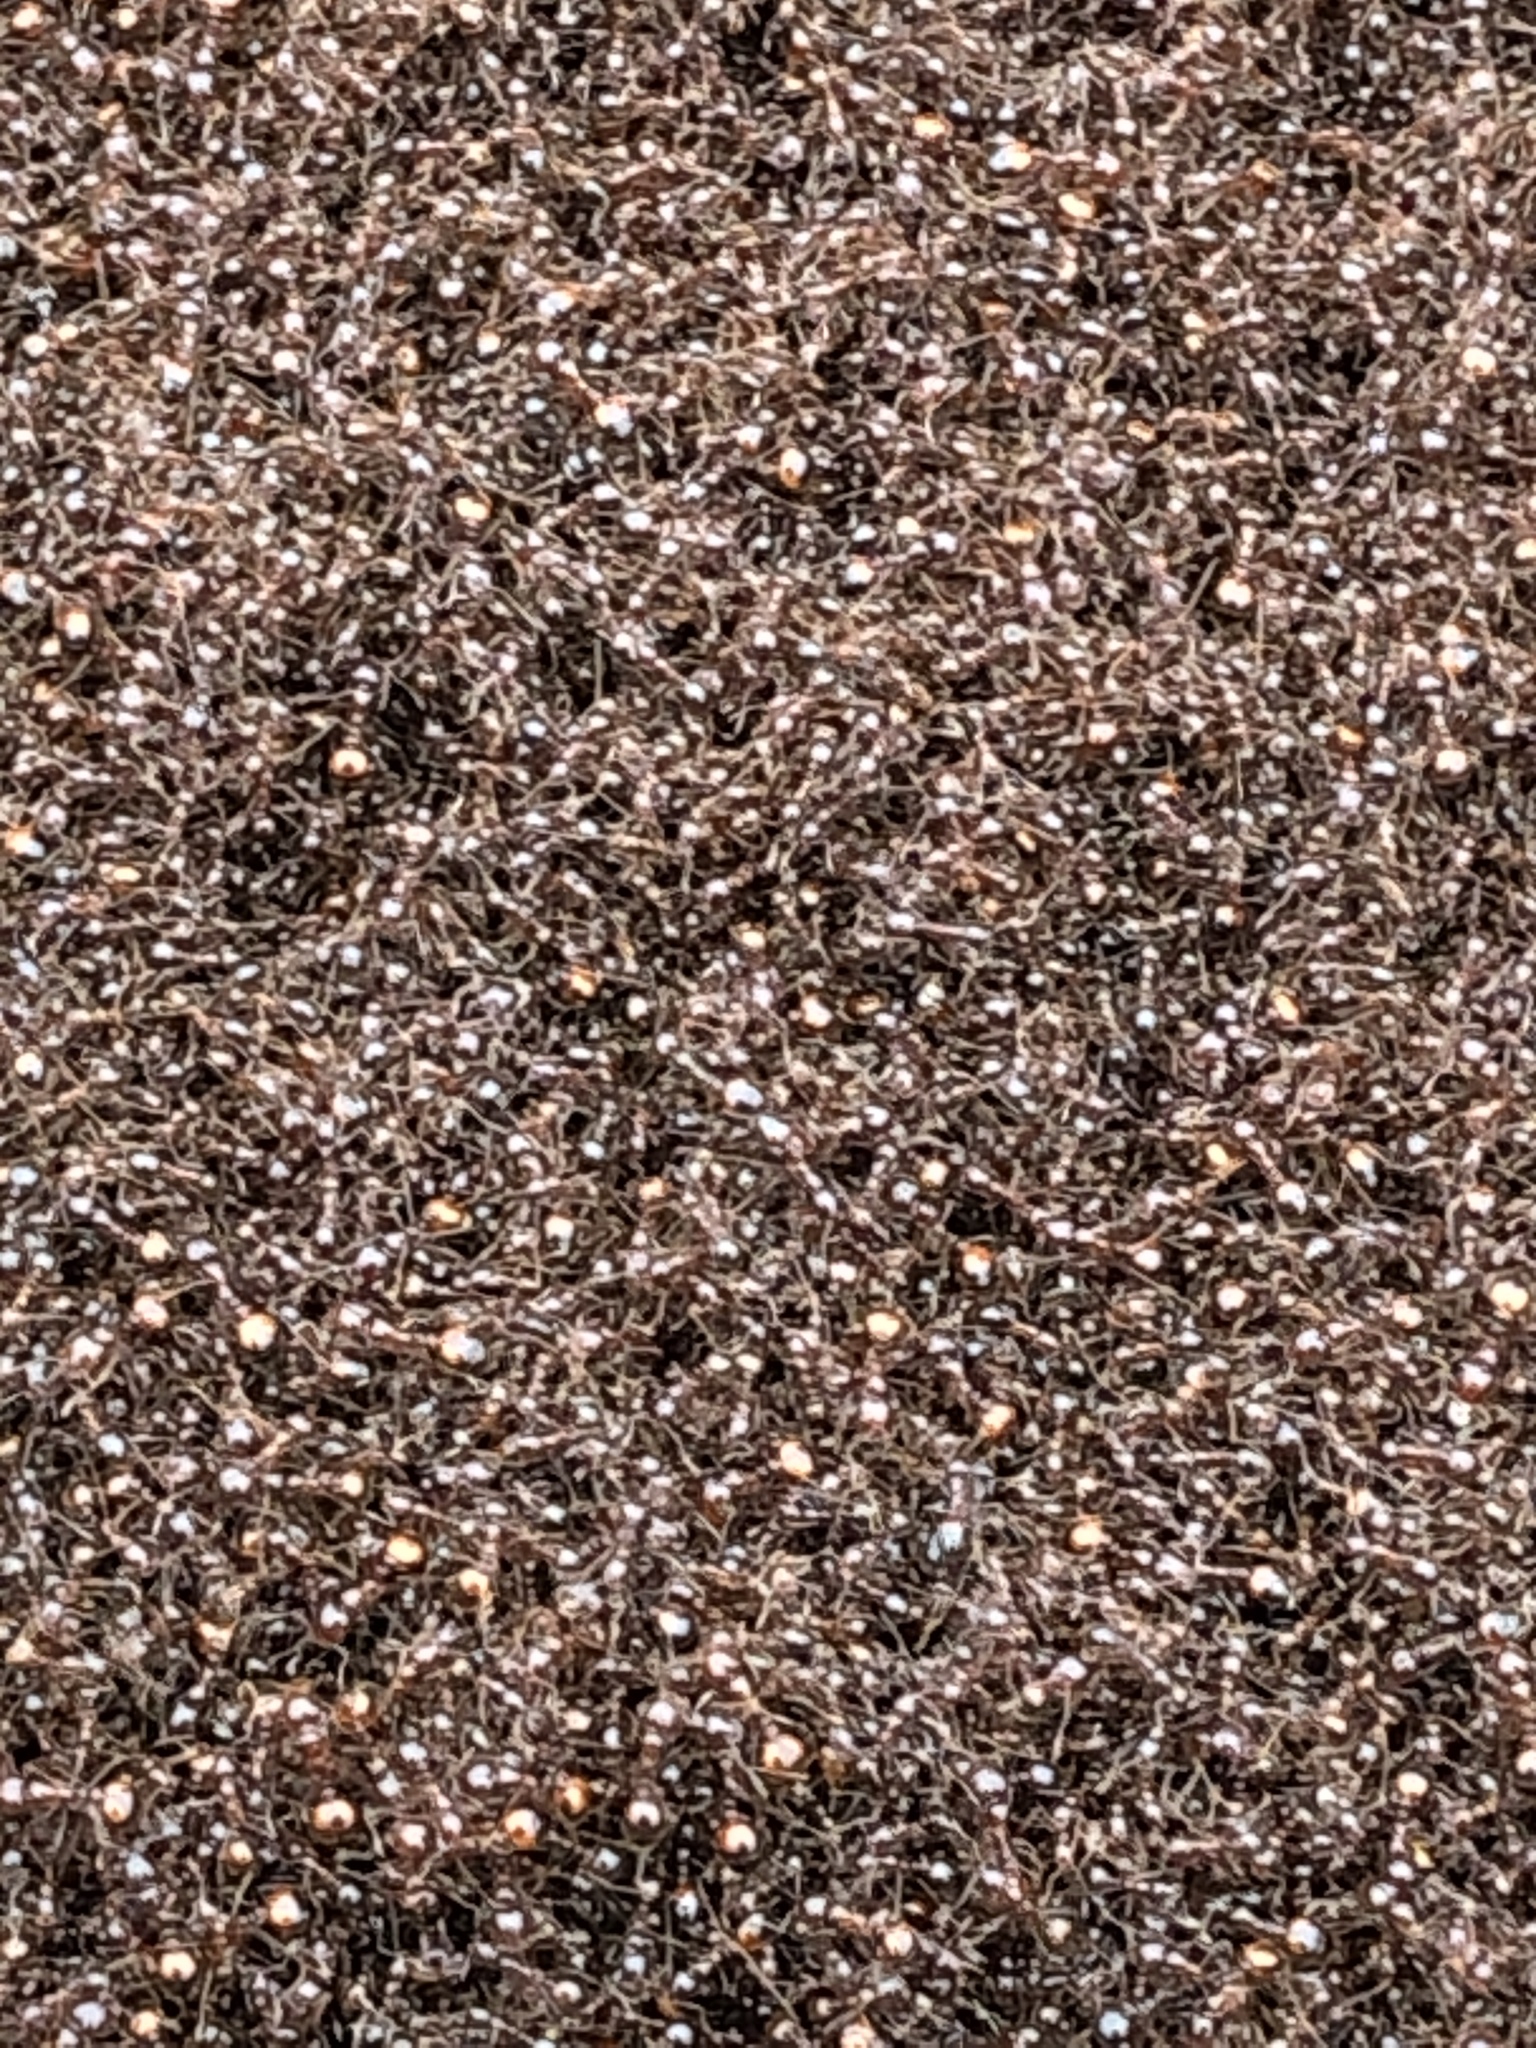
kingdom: Animalia
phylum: Arthropoda
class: Insecta
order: Hymenoptera
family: Formicidae
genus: Solenopsis
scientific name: Solenopsis invicta
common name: Red imported fire ant
